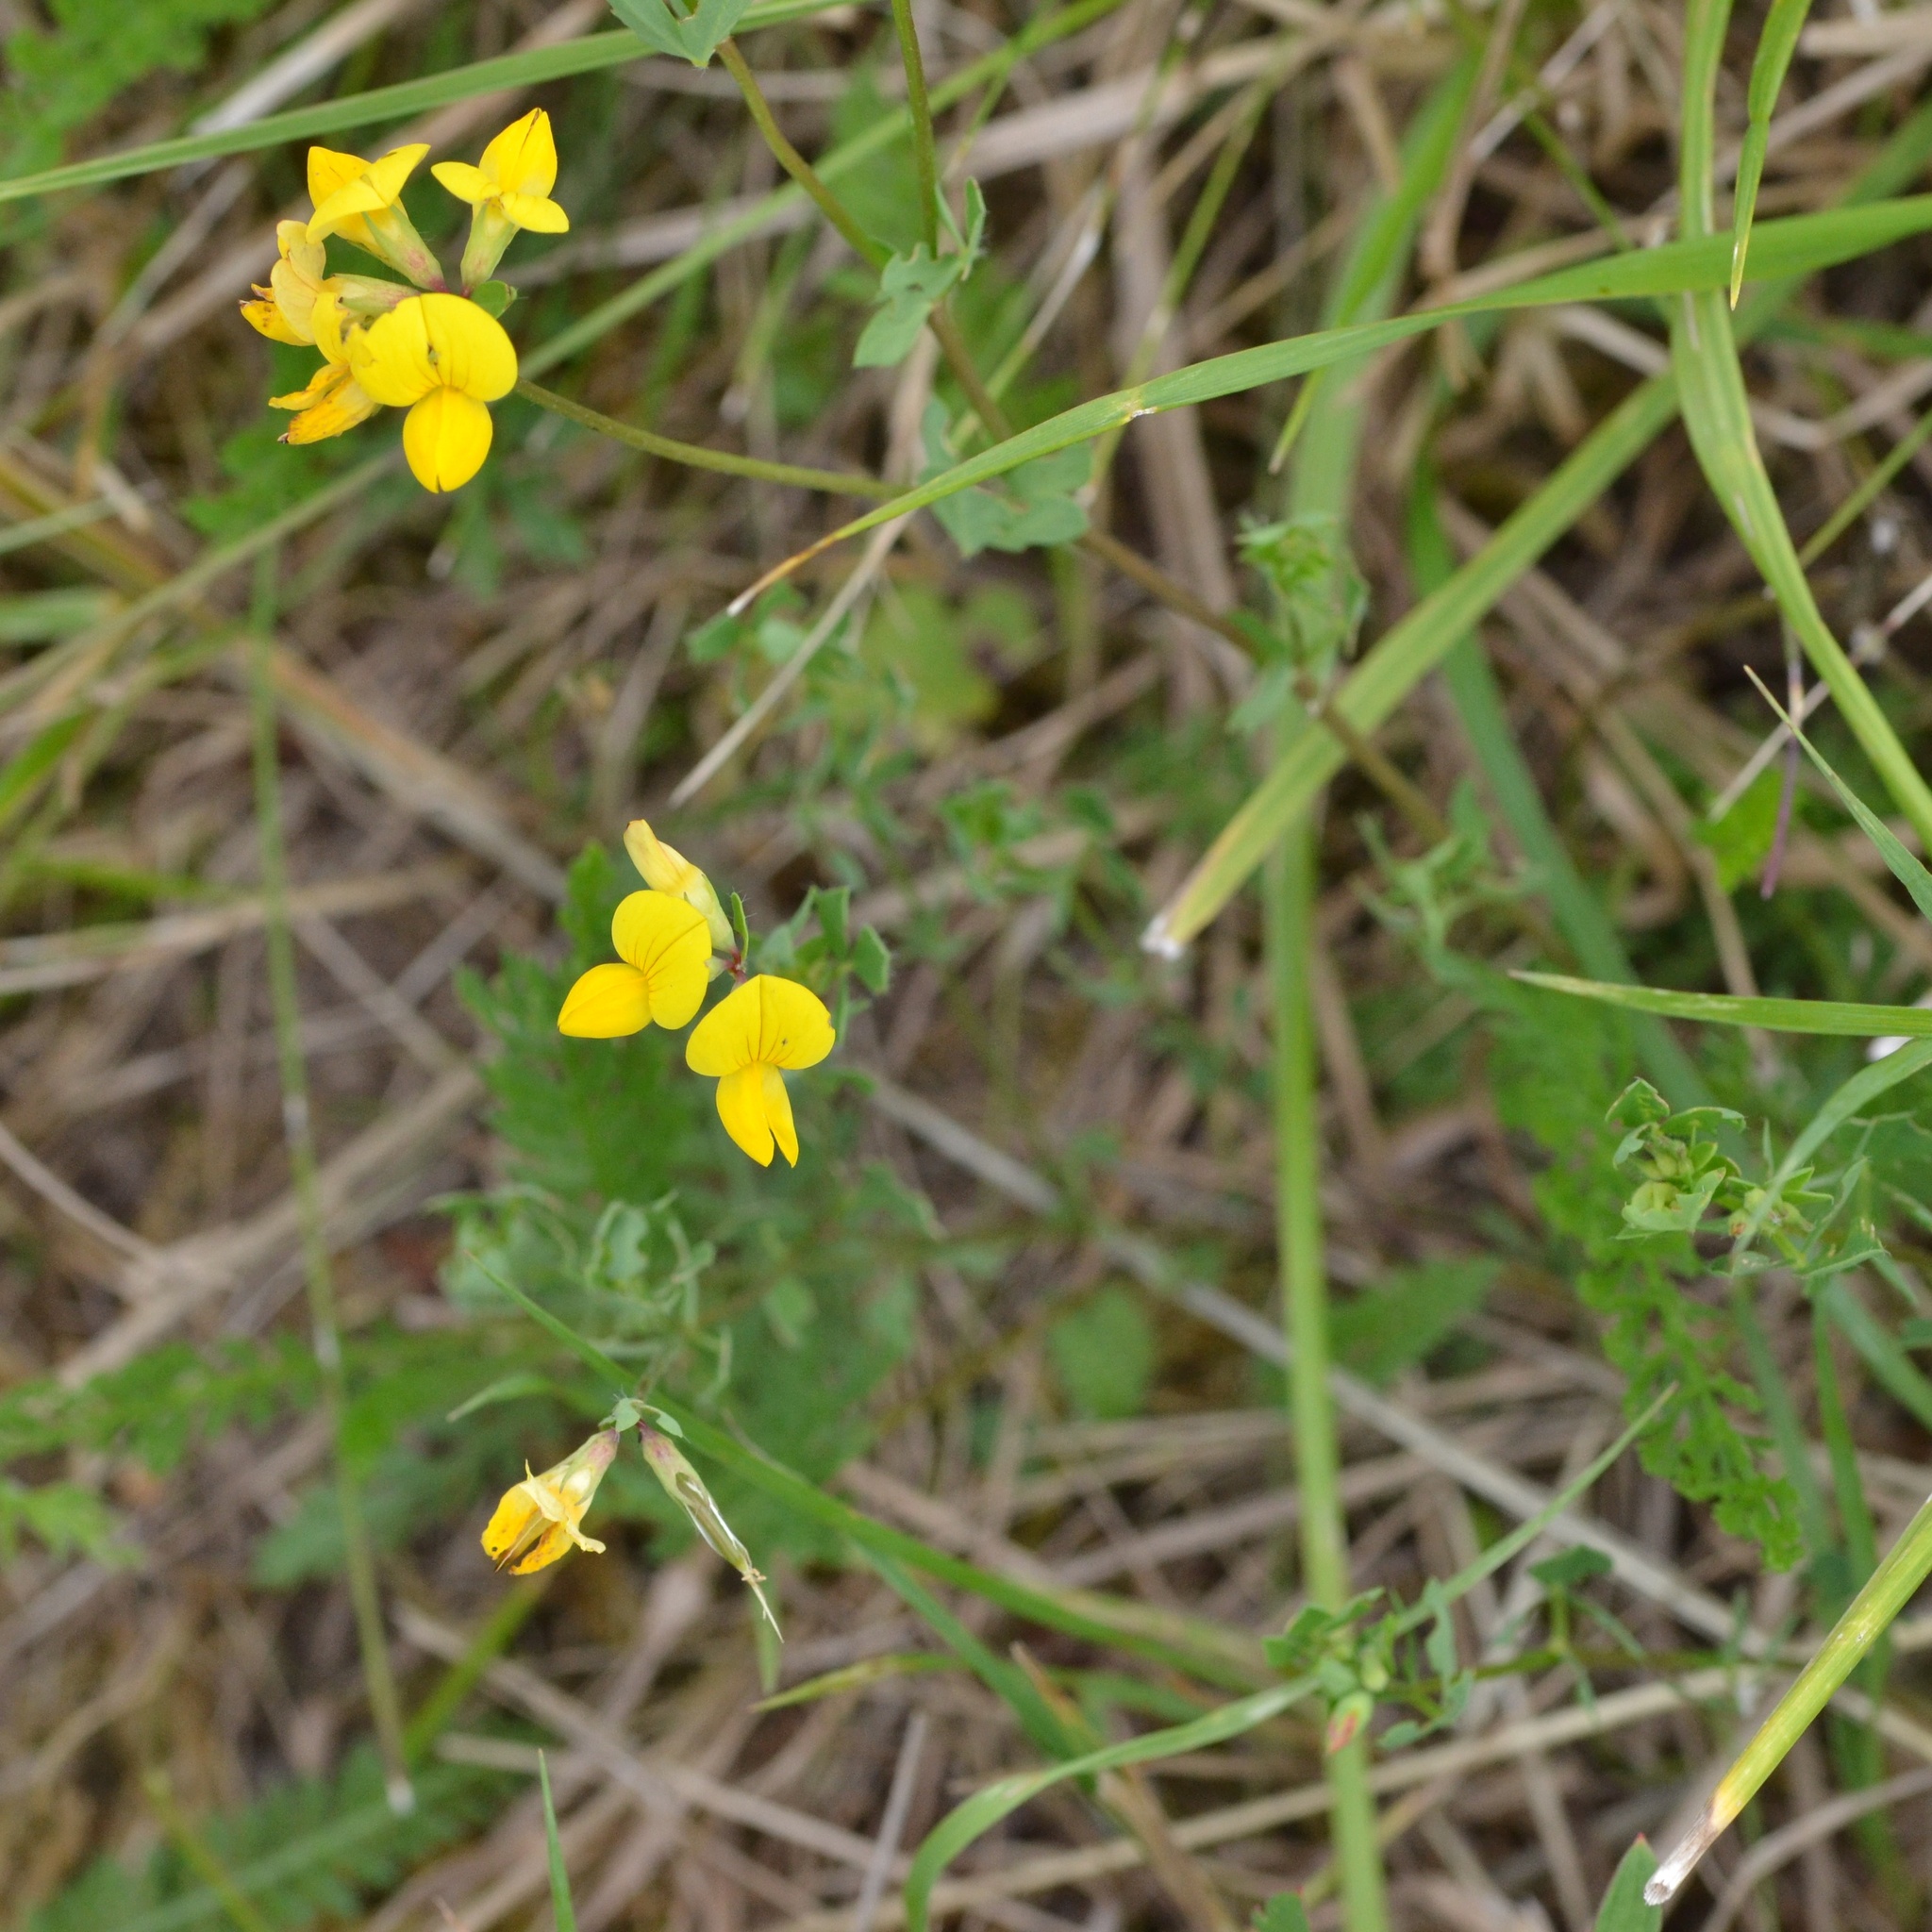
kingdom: Plantae
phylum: Tracheophyta
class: Magnoliopsida
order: Fabales
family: Fabaceae
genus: Lotus
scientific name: Lotus corniculatus
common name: Common bird's-foot-trefoil
